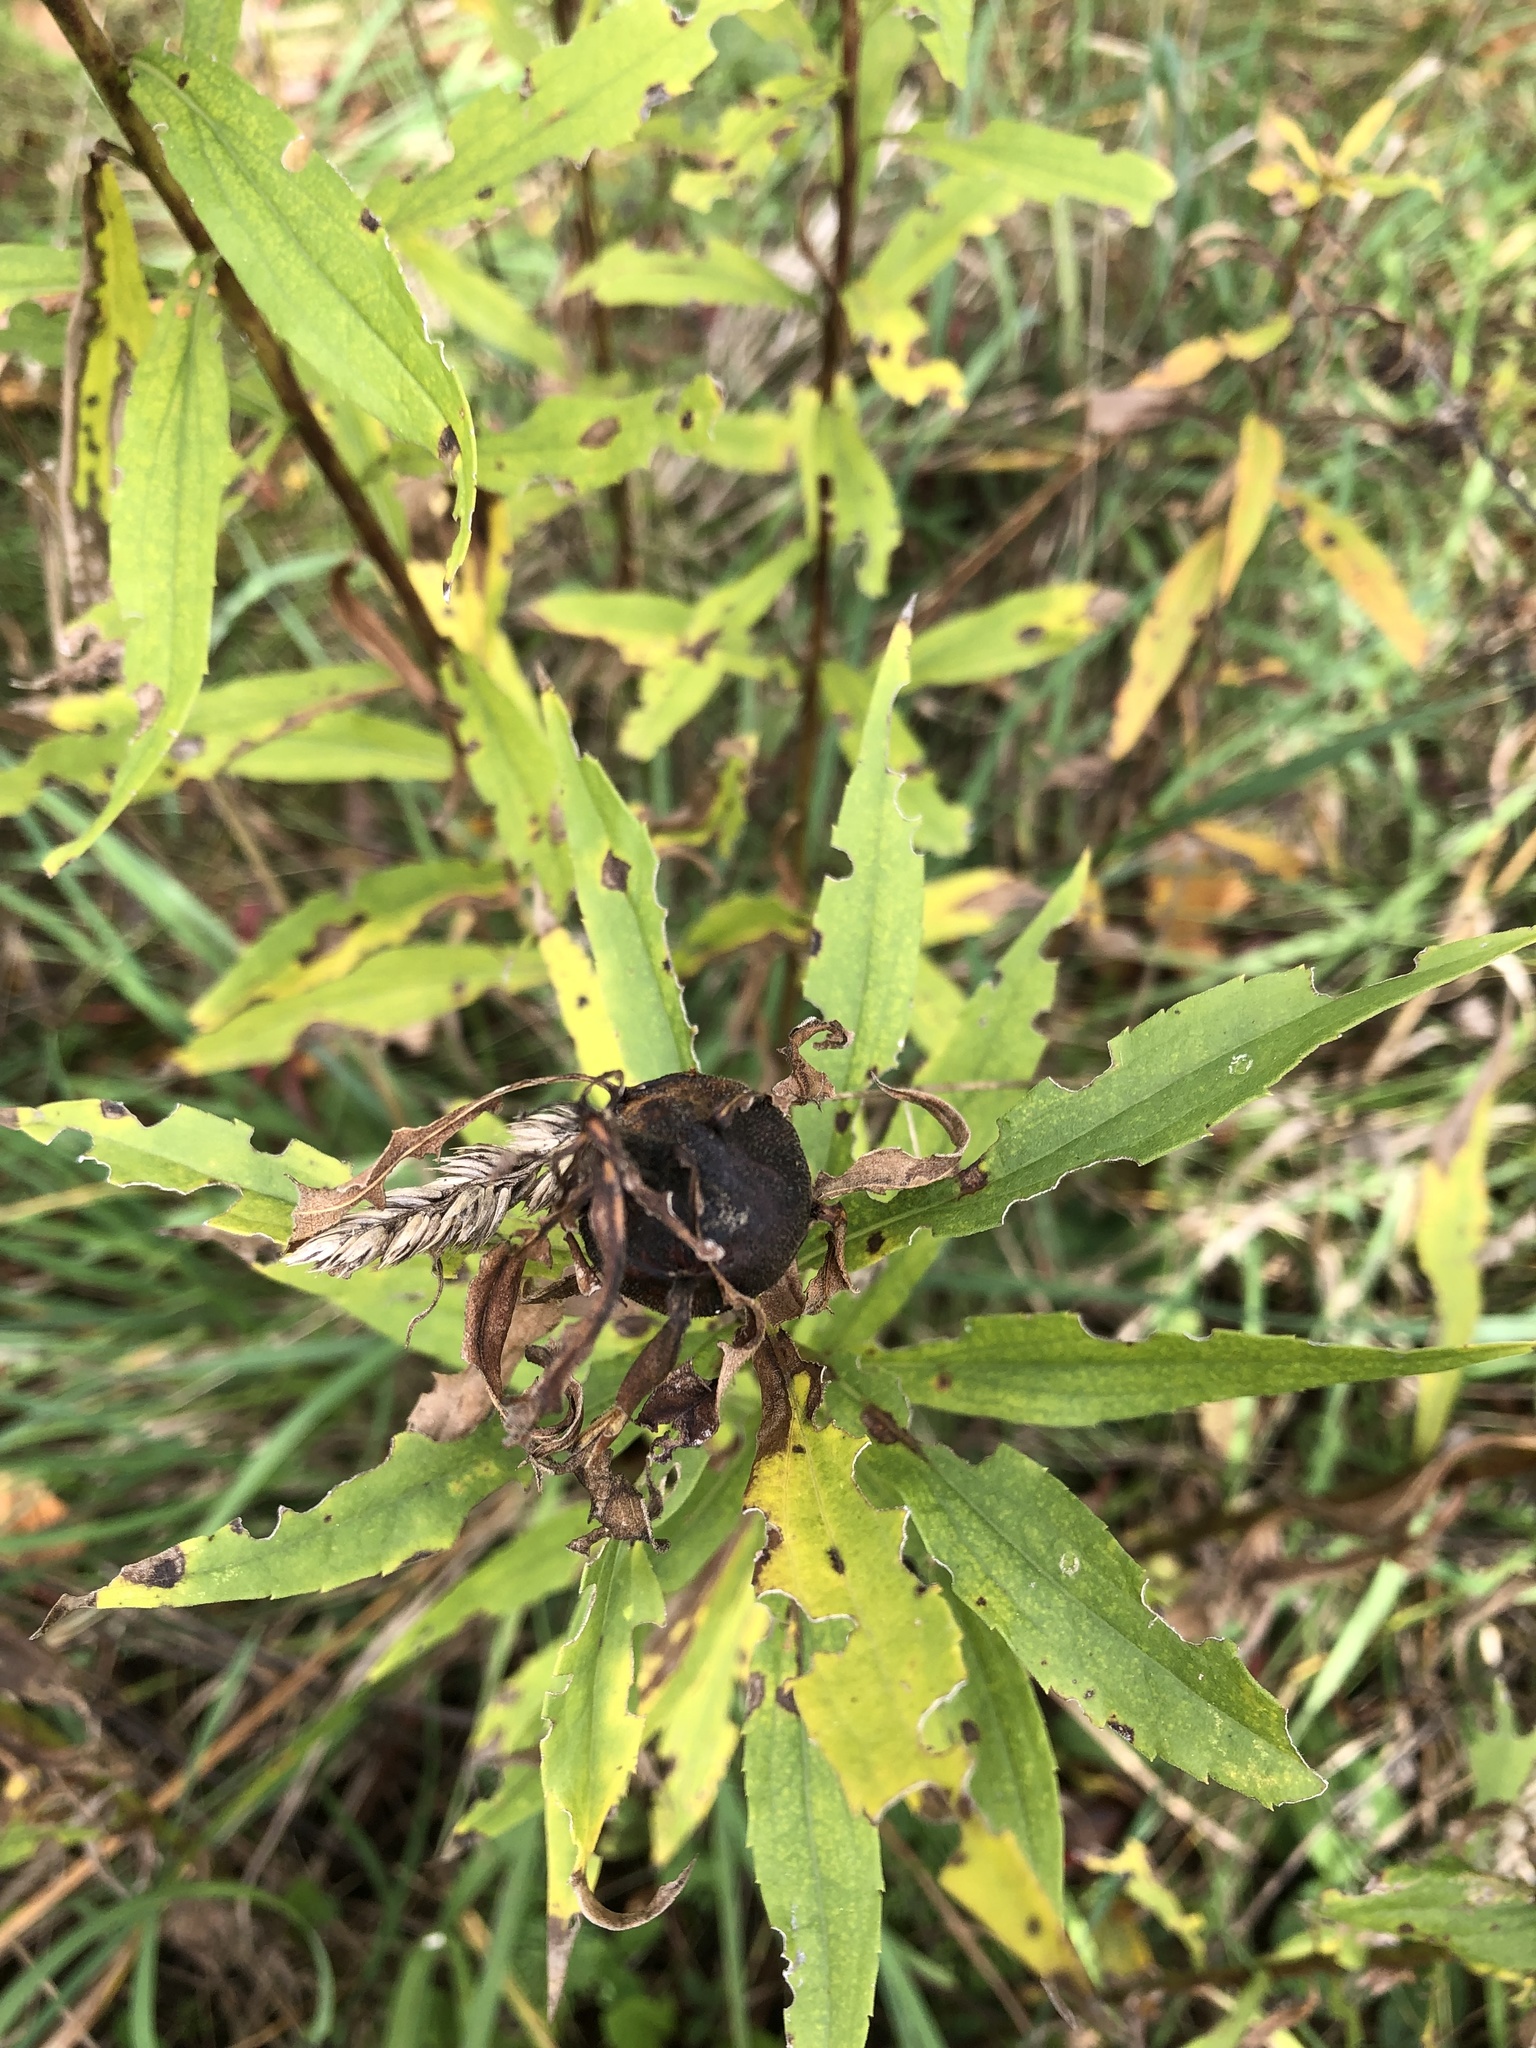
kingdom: Animalia
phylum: Arthropoda
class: Insecta
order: Diptera
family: Tephritidae
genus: Eurosta
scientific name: Eurosta solidaginis
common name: Goldenrod gall fly
